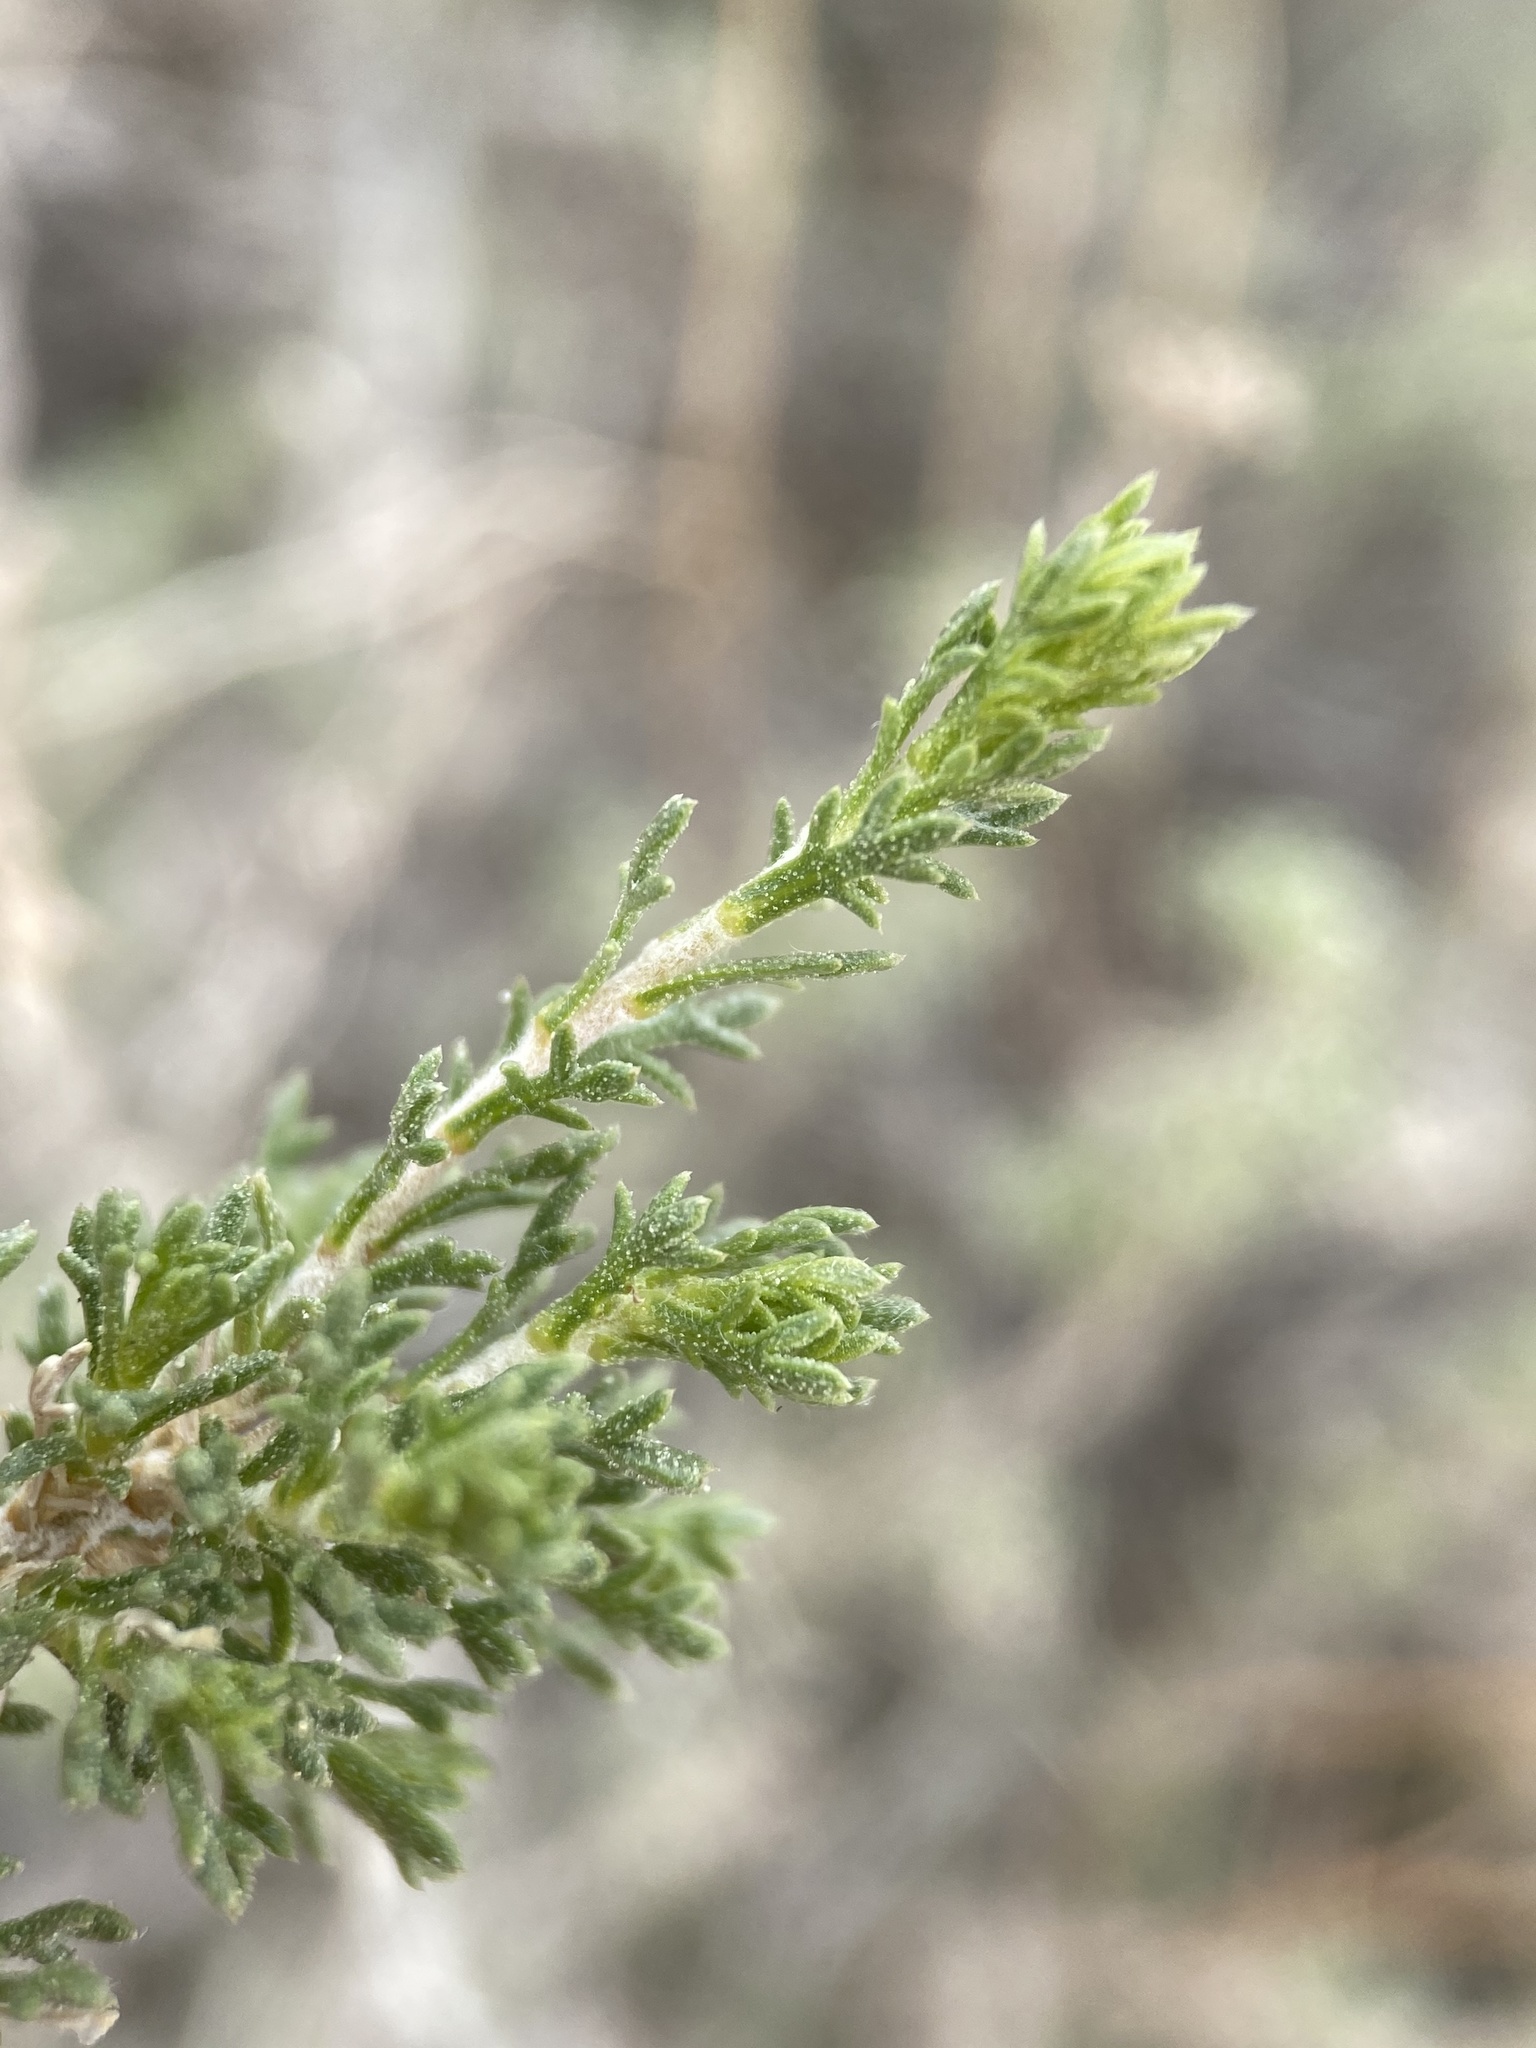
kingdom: Plantae
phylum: Tracheophyta
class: Magnoliopsida
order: Asterales
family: Asteraceae
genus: Artemisia
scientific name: Artemisia pygmaea
